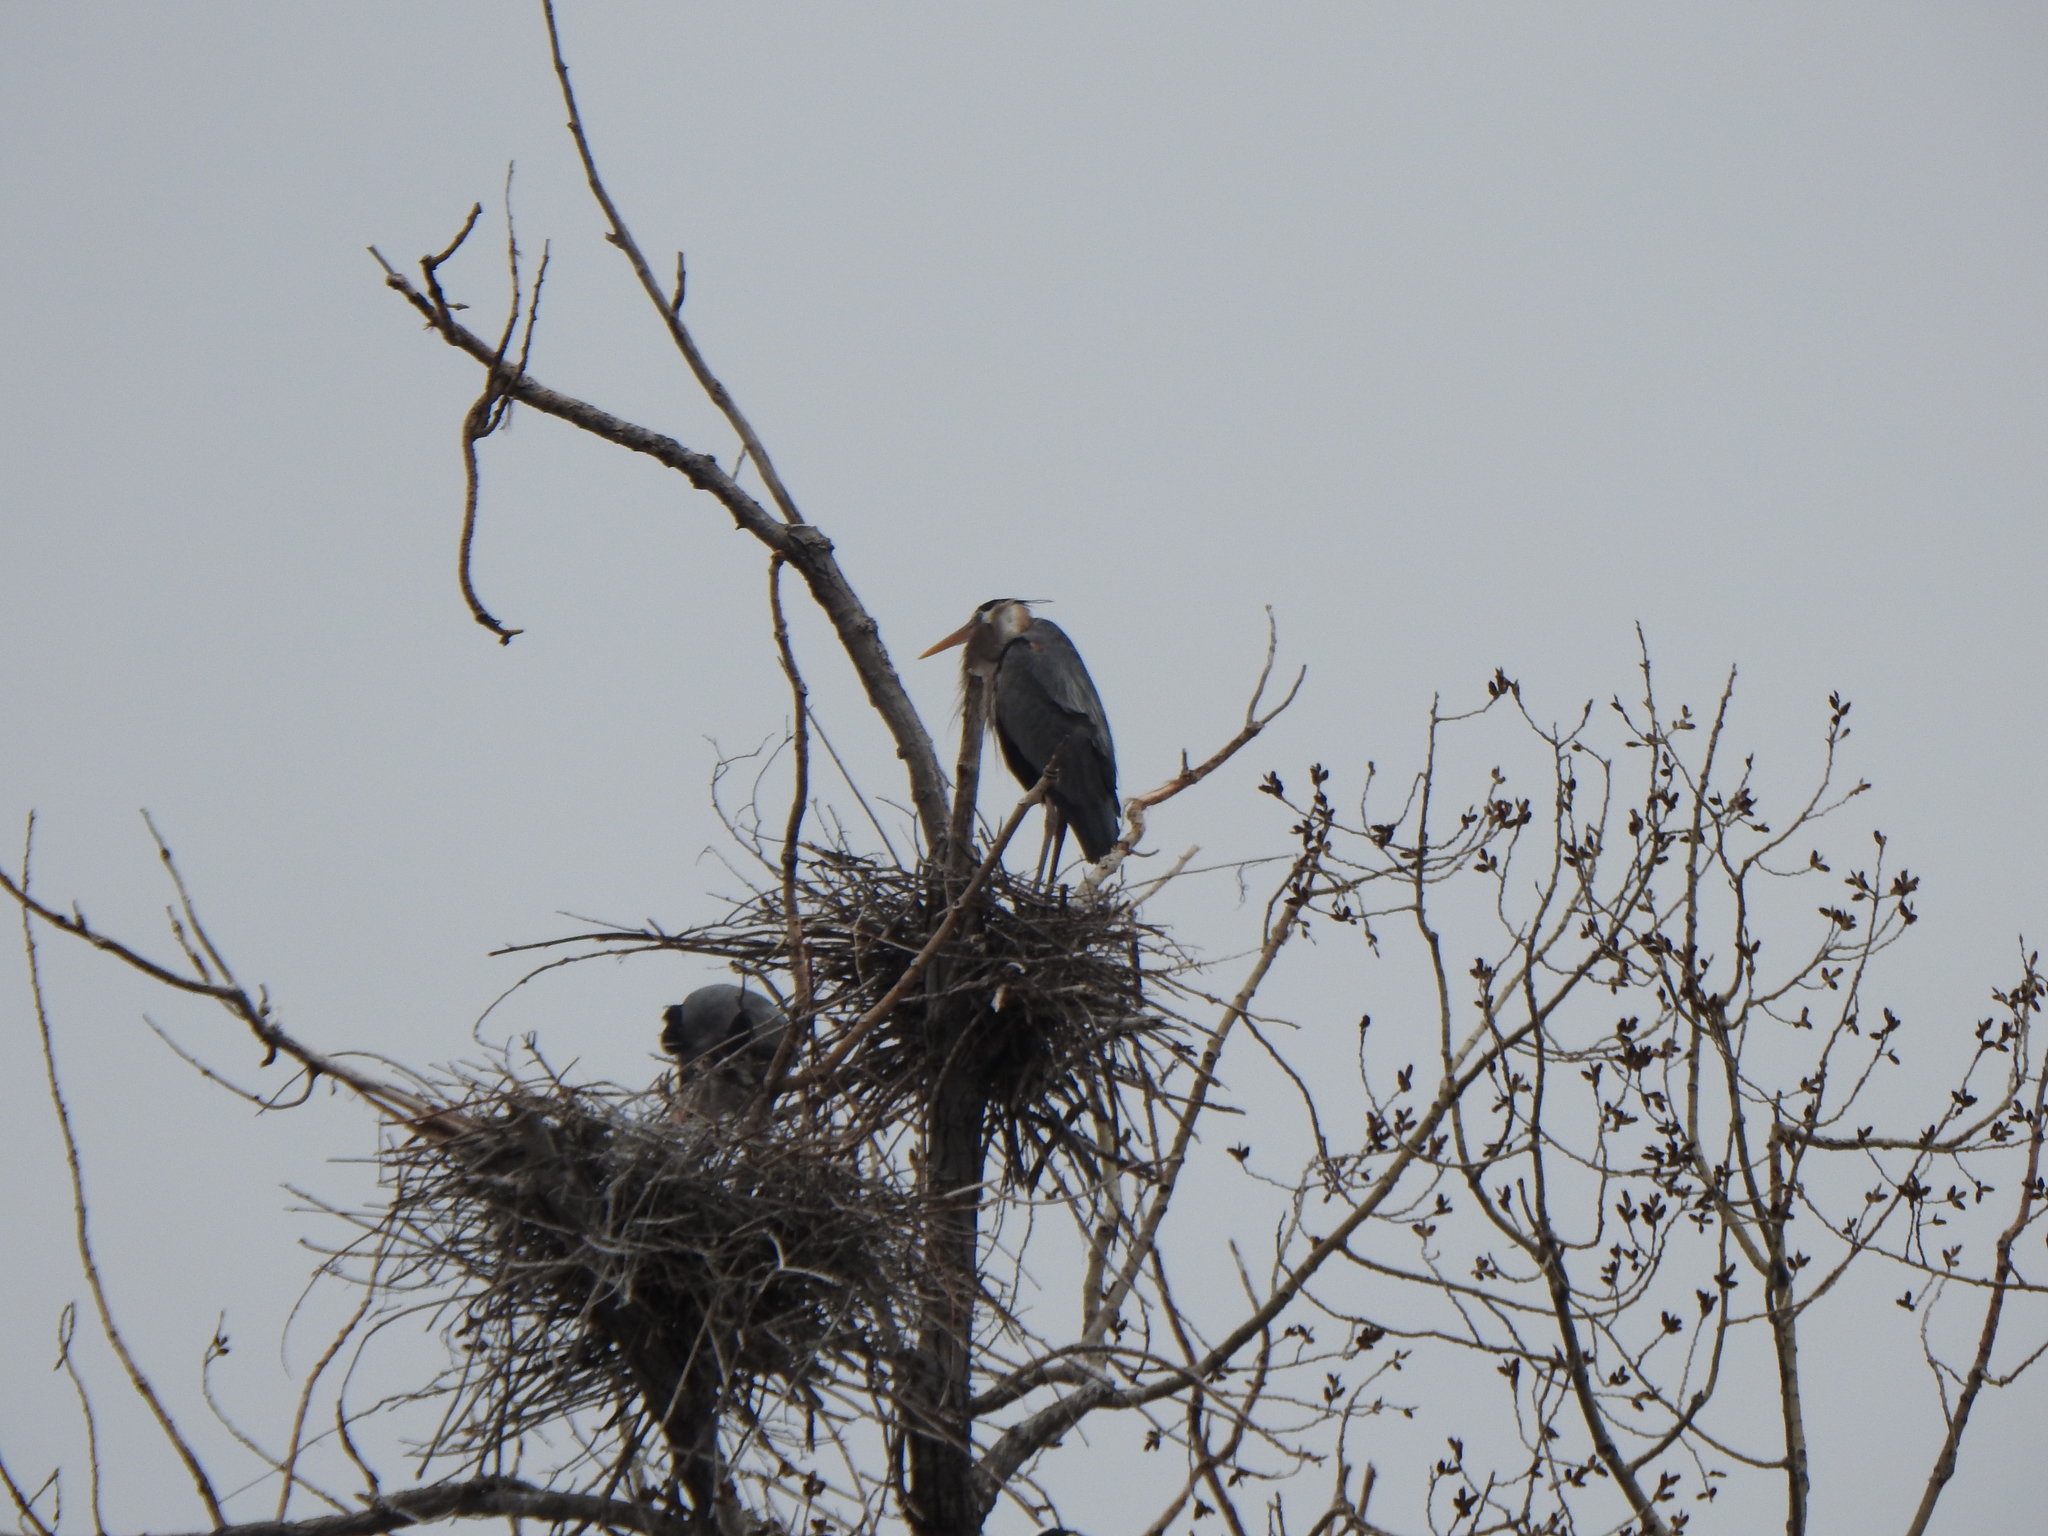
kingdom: Animalia
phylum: Chordata
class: Aves
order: Pelecaniformes
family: Ardeidae
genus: Ardea
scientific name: Ardea herodias
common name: Great blue heron
